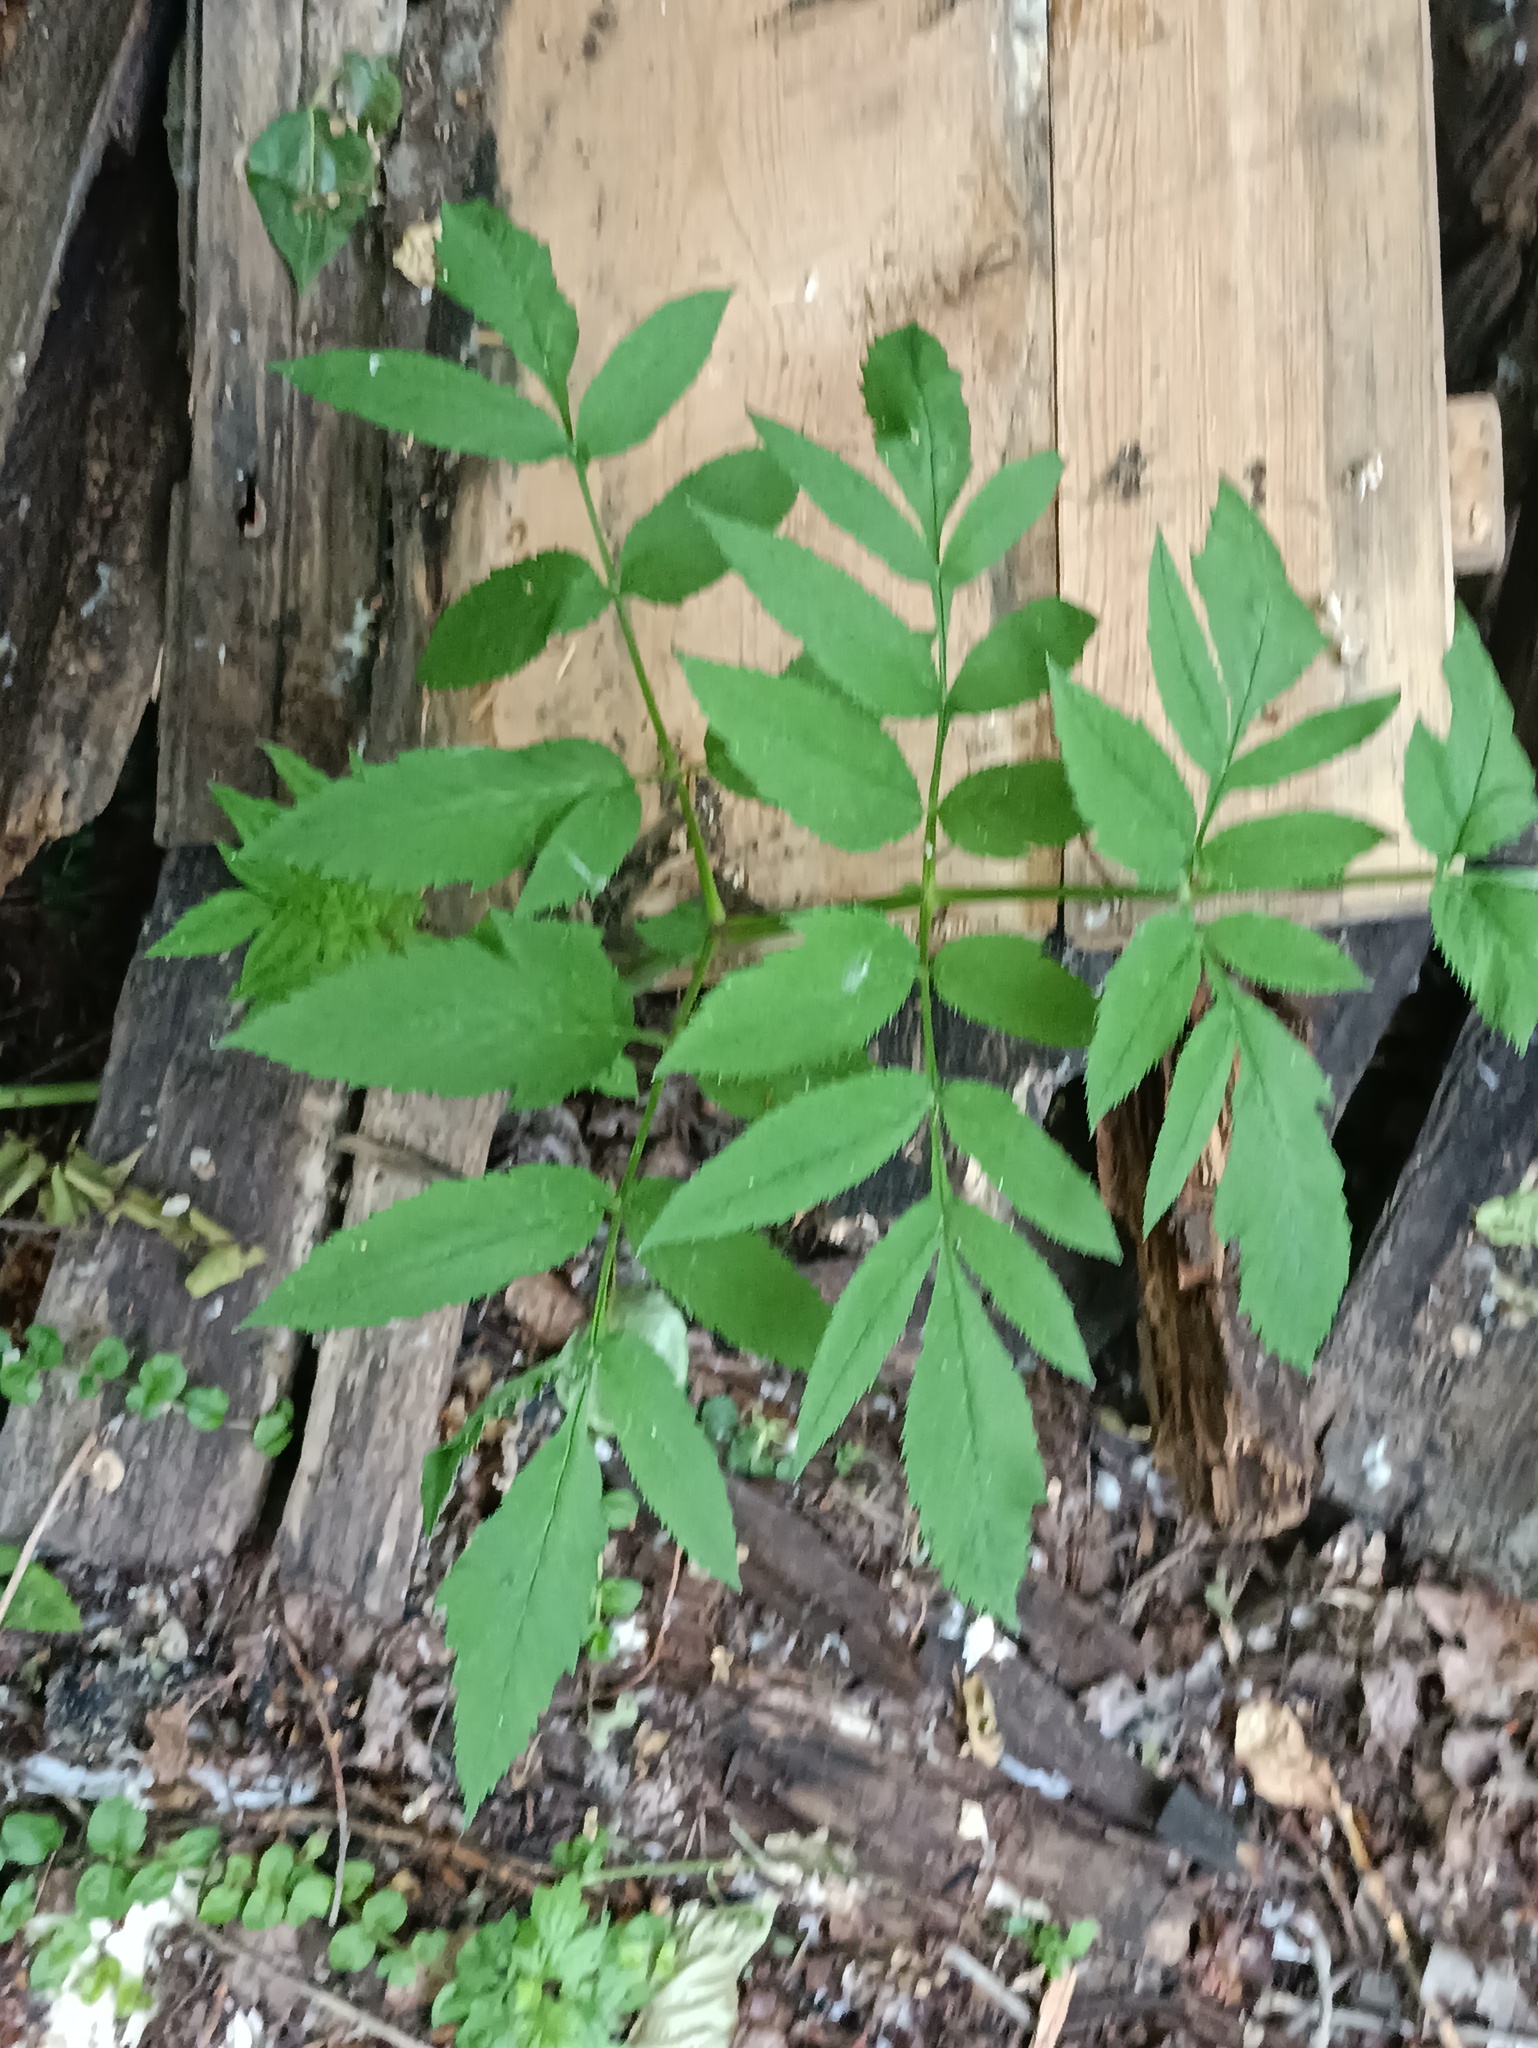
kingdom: Plantae
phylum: Tracheophyta
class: Magnoliopsida
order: Apiales
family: Apiaceae
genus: Angelica
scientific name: Angelica sylvestris
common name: Wild angelica
